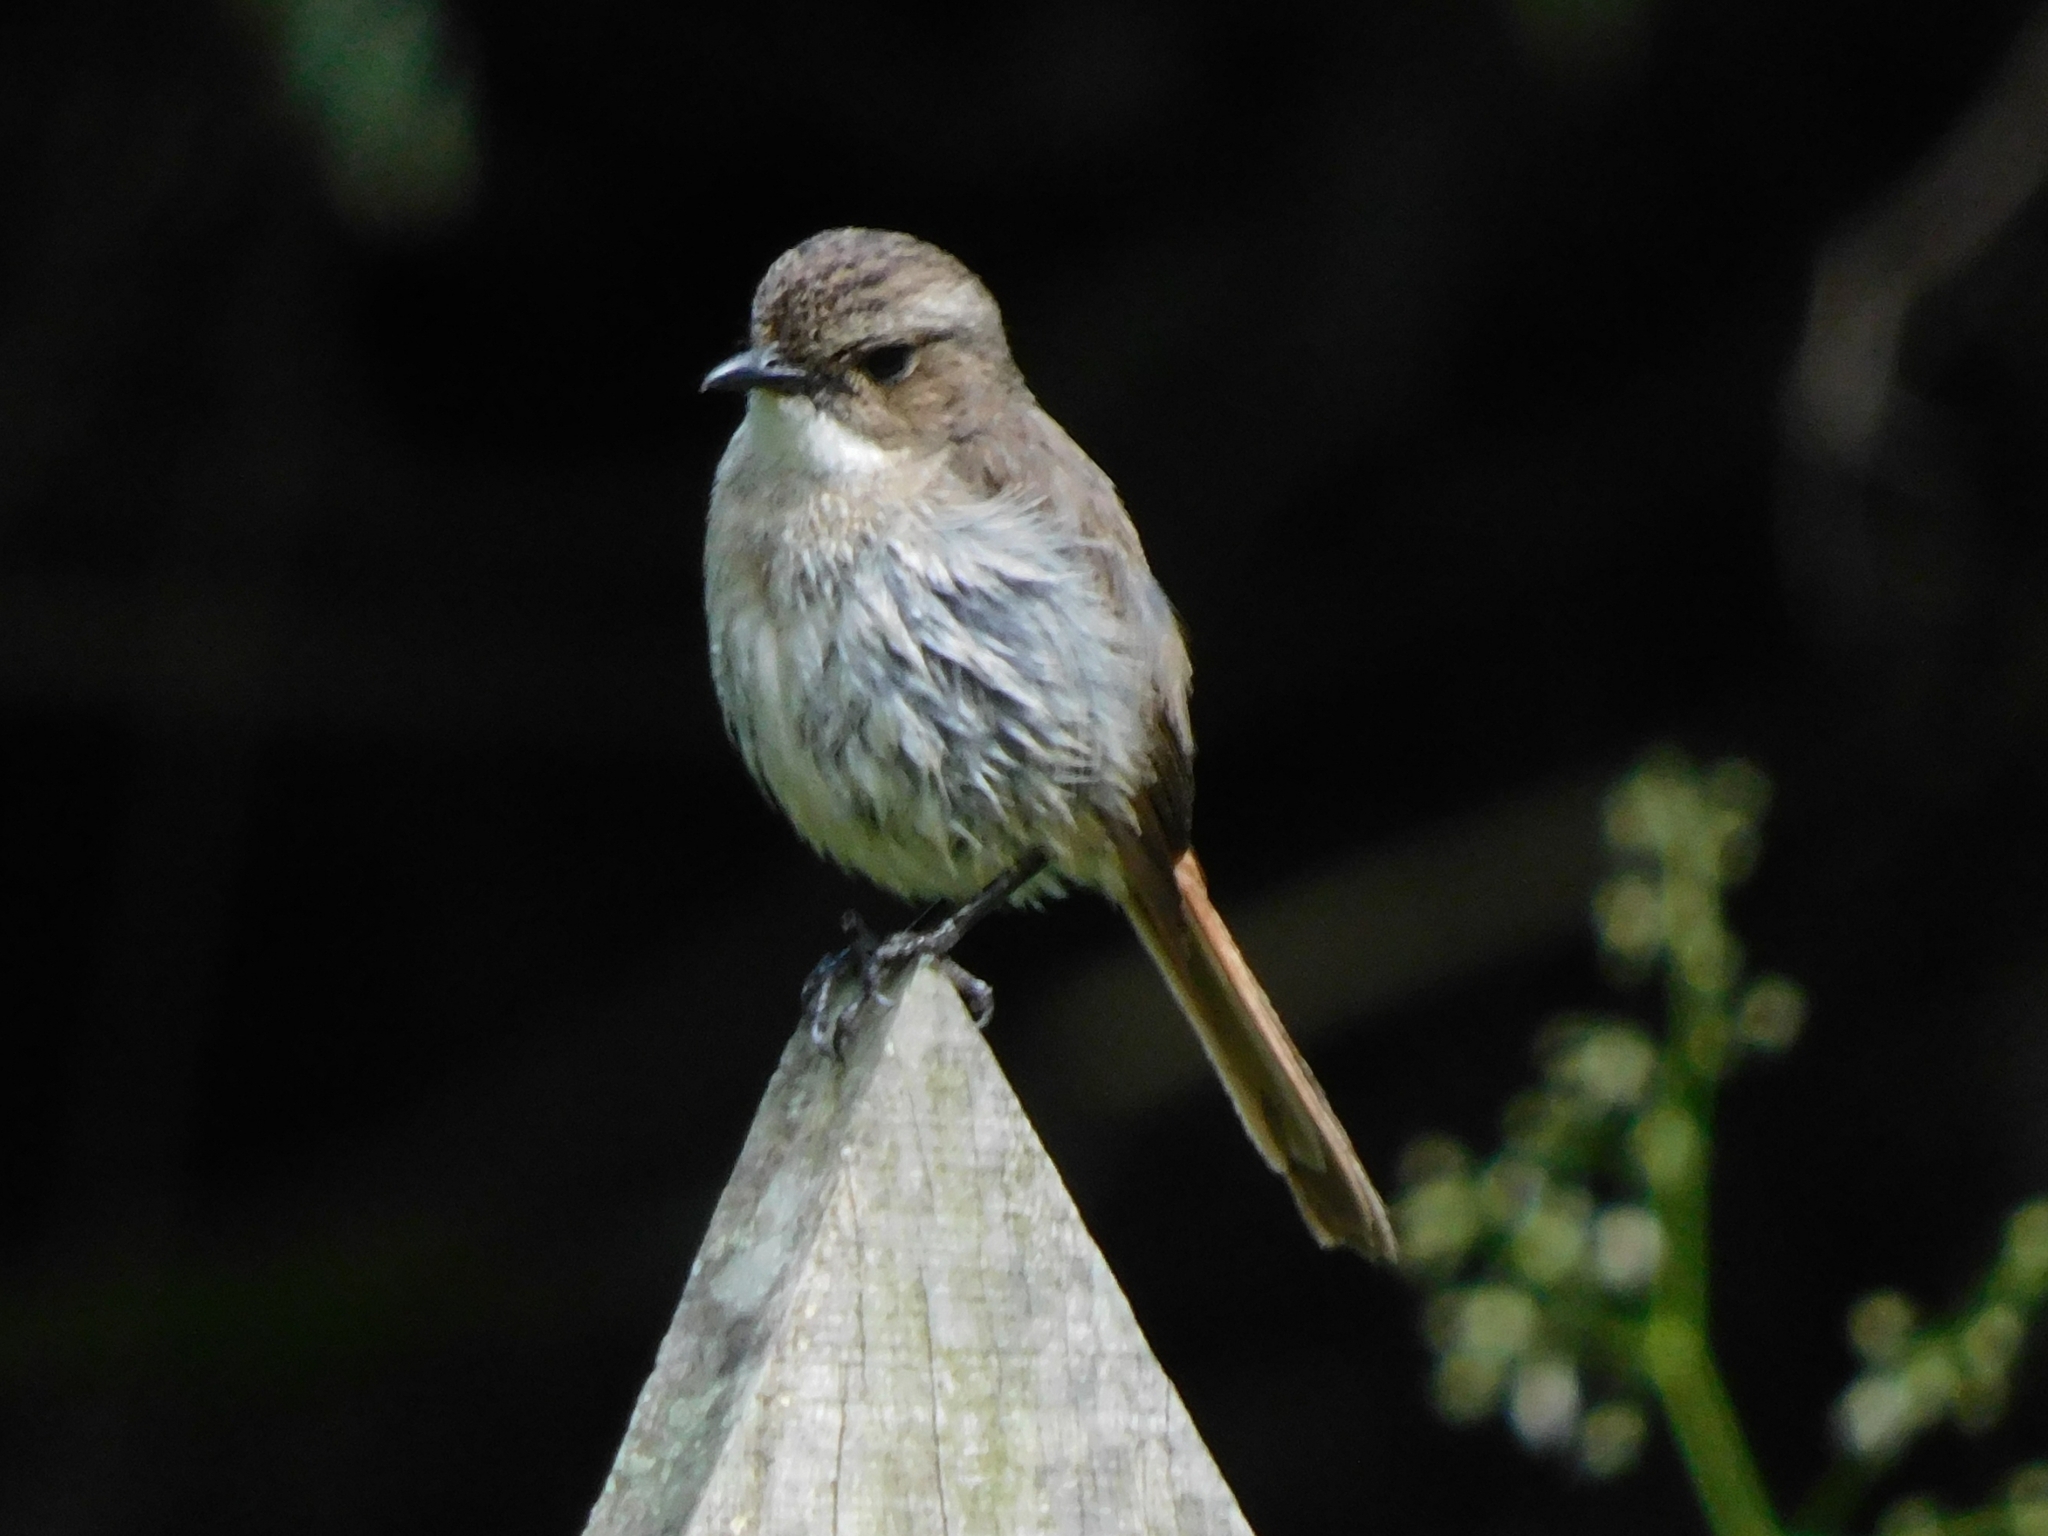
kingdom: Animalia
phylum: Chordata
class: Aves
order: Passeriformes
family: Muscicapidae
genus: Saxicola
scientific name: Saxicola ferreus
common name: Grey bush chat
